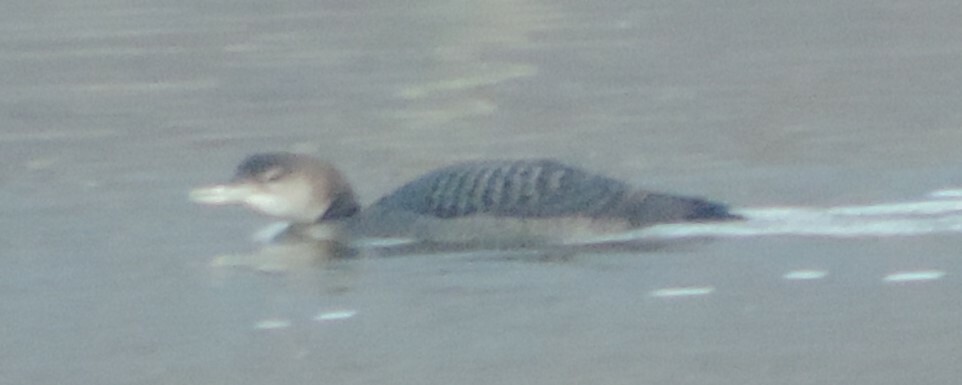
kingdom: Animalia
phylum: Chordata
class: Aves
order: Gaviiformes
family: Gaviidae
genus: Gavia
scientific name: Gavia immer
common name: Common loon
